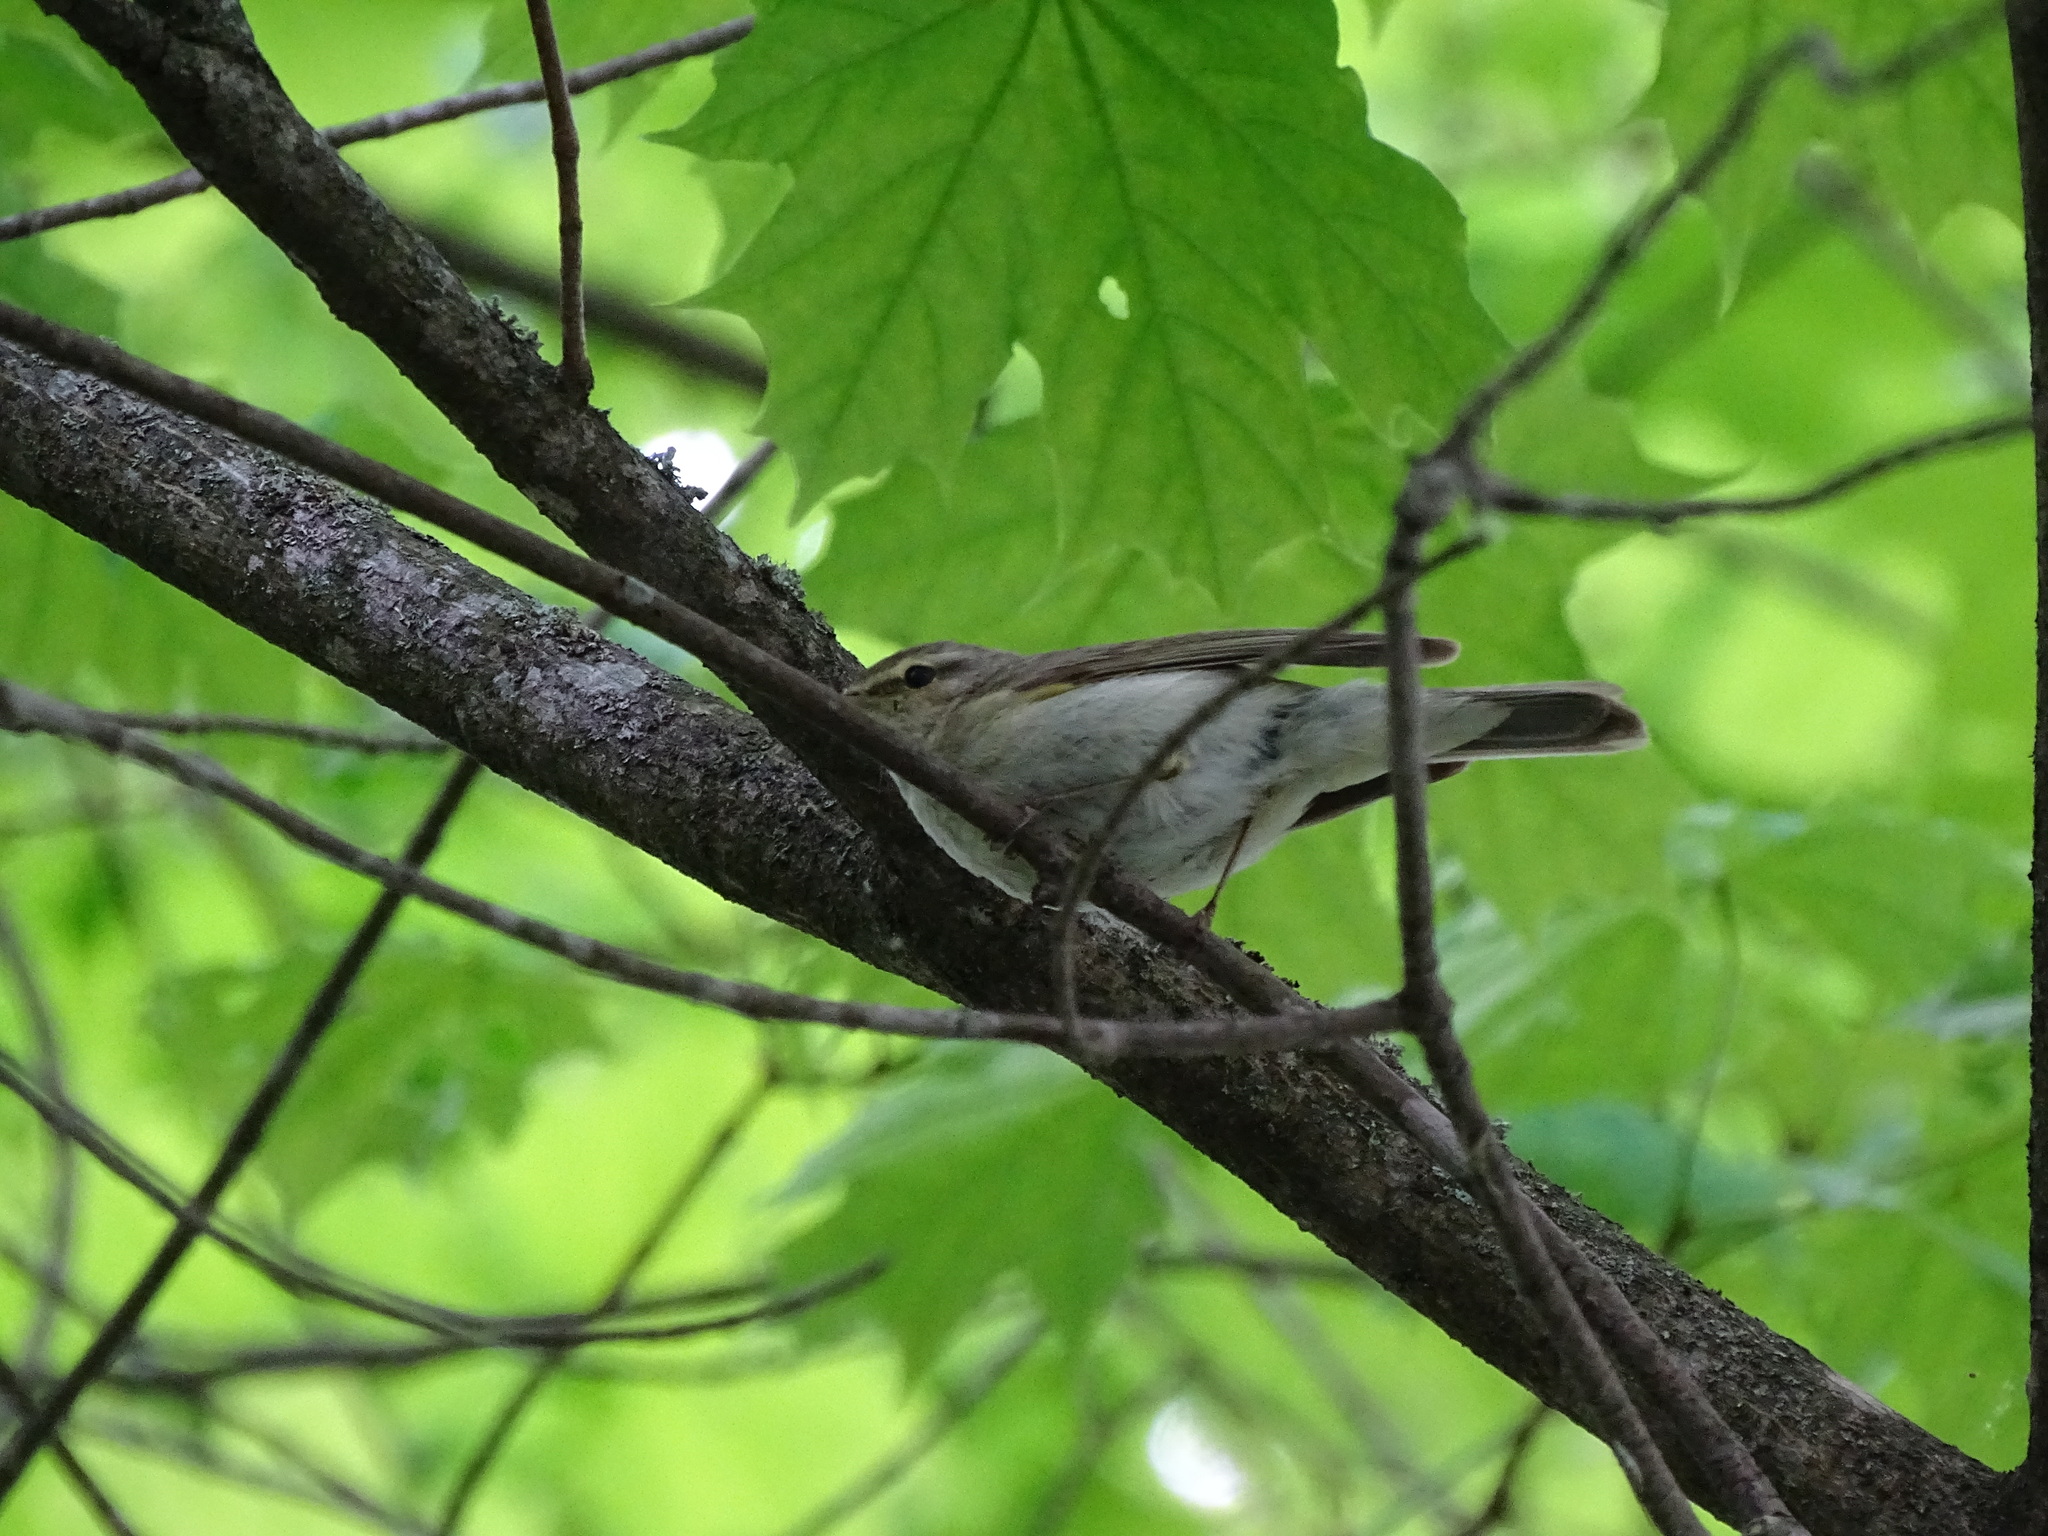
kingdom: Animalia
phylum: Chordata
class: Aves
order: Passeriformes
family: Phylloscopidae
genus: Phylloscopus
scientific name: Phylloscopus collybita
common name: Common chiffchaff
